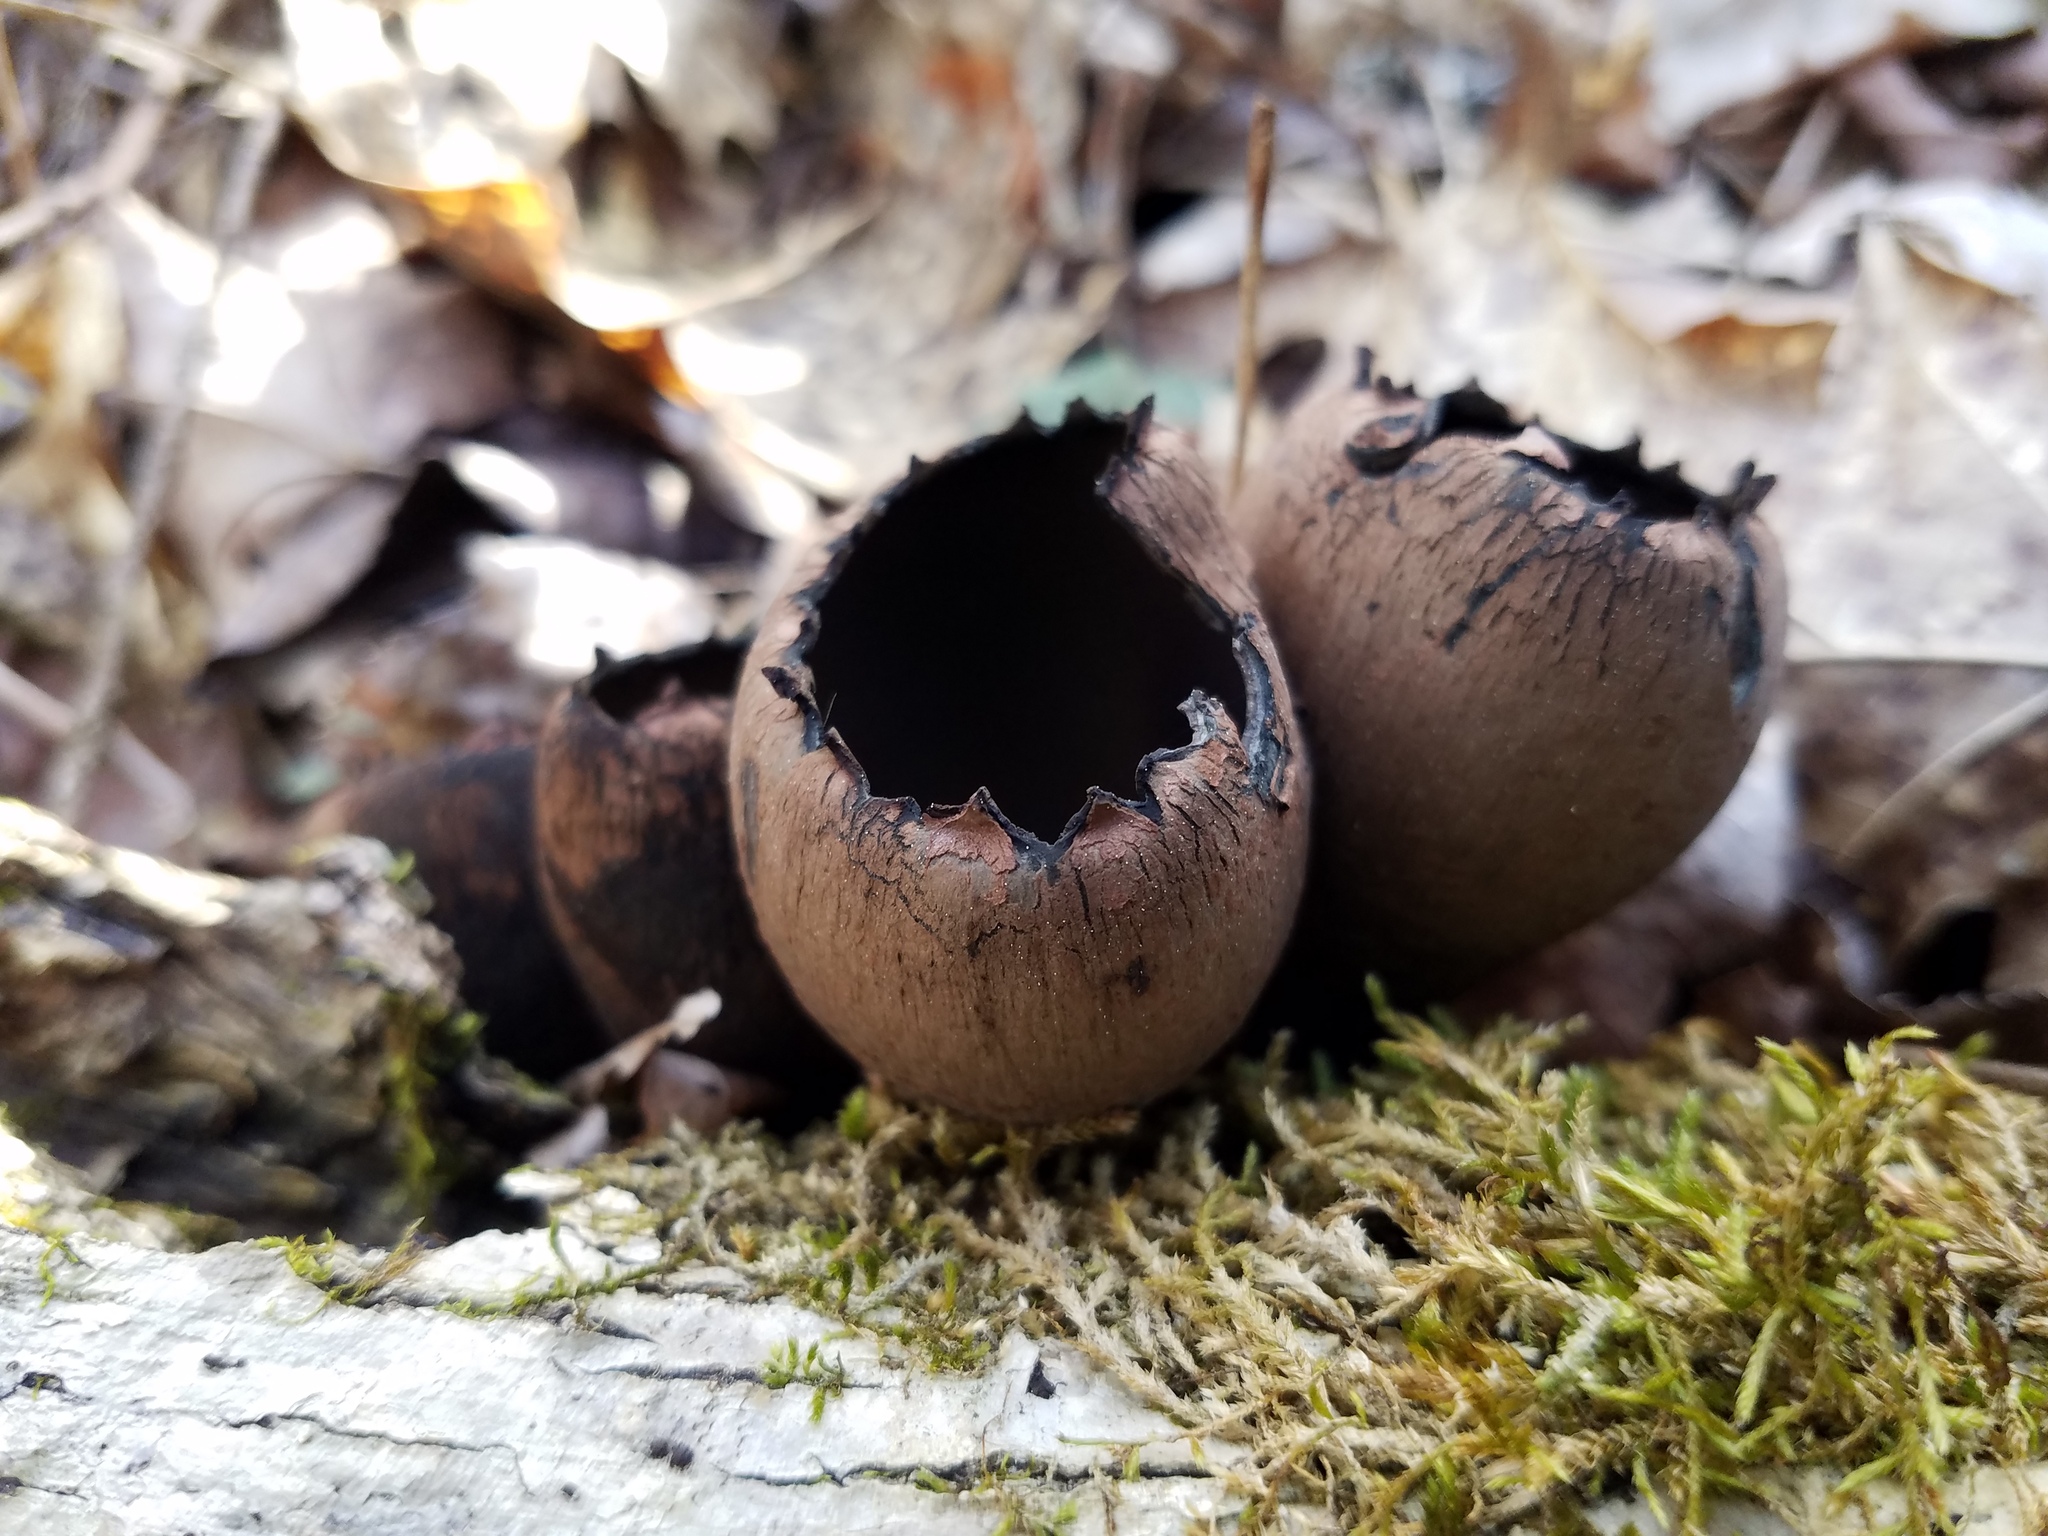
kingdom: Fungi
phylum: Ascomycota
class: Pezizomycetes
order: Pezizales
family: Sarcosomataceae
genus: Urnula
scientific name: Urnula craterium
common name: Devil's urn
